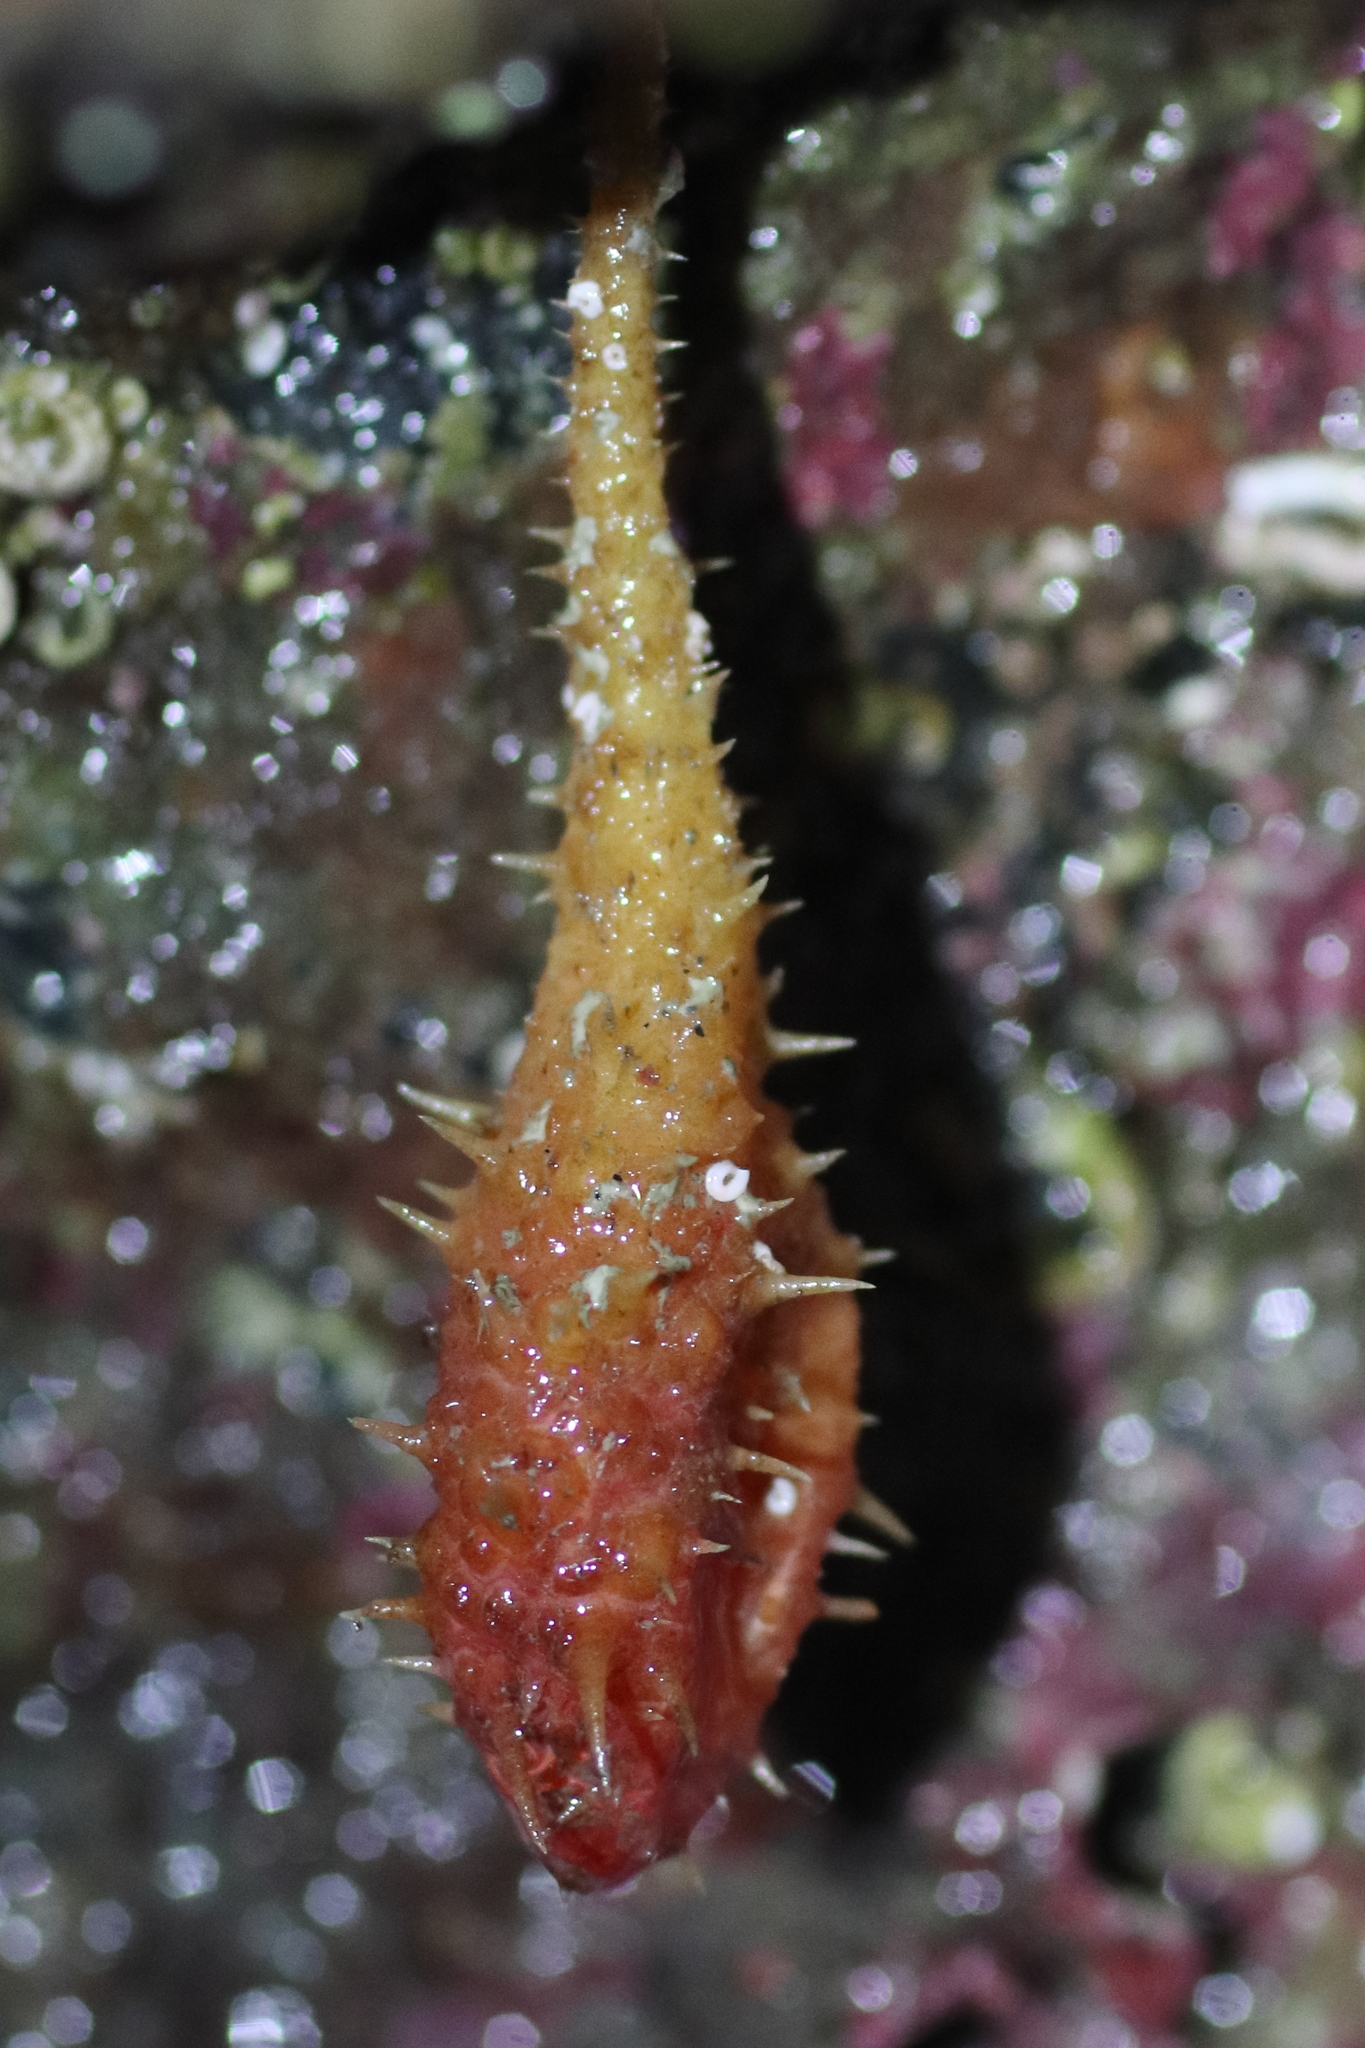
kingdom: Animalia
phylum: Chordata
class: Ascidiacea
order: Stolidobranchia
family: Pyuridae
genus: Boltenia
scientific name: Boltenia villosa
